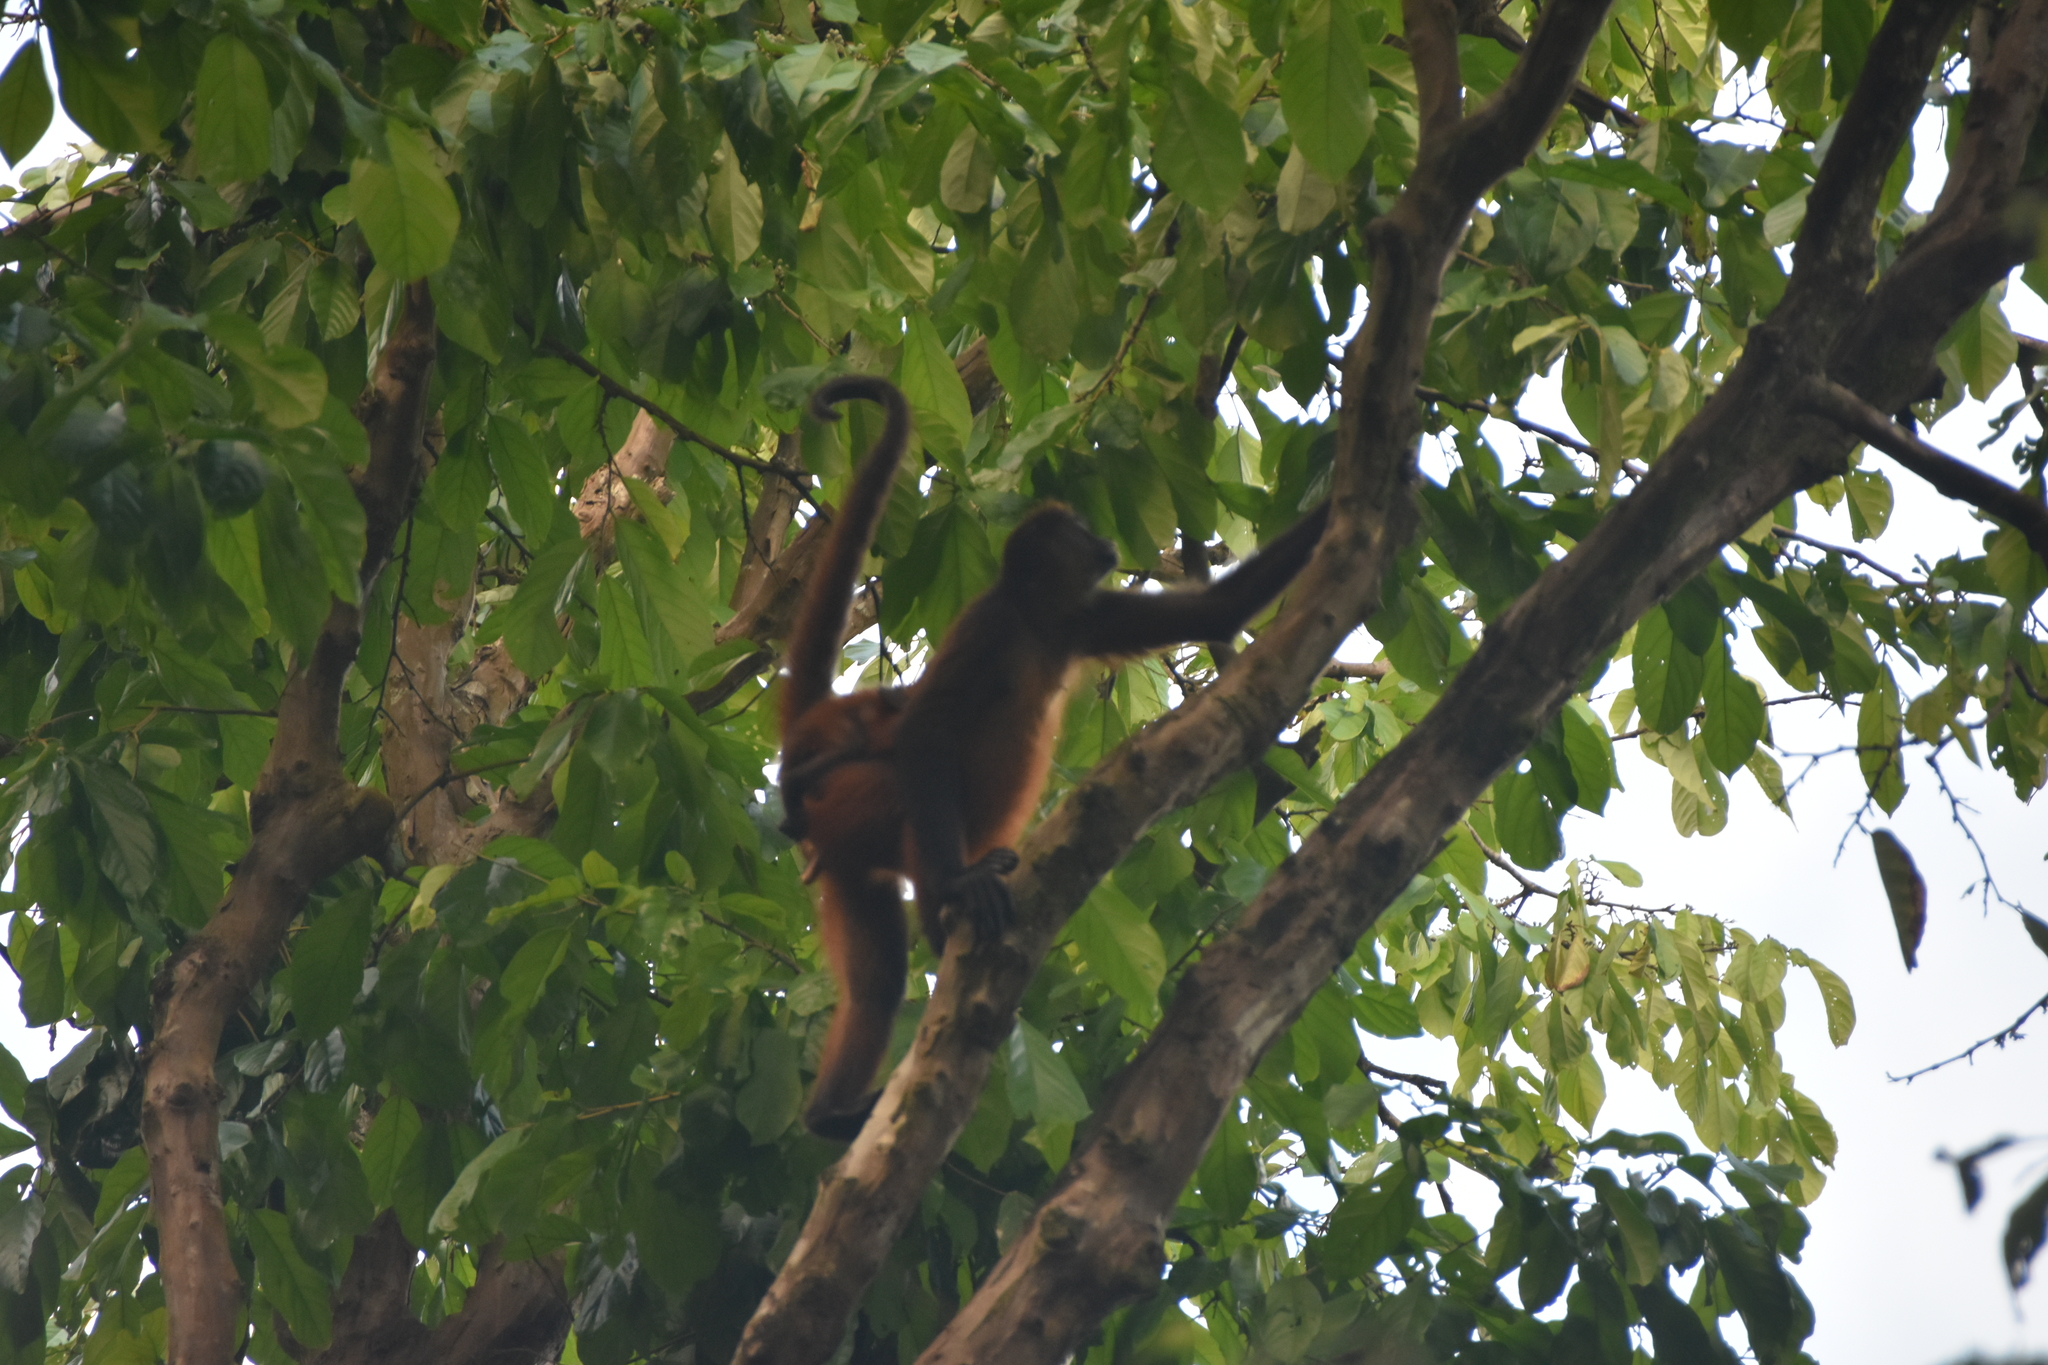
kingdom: Animalia
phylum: Chordata
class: Mammalia
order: Primates
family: Atelidae
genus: Ateles
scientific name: Ateles geoffroyi
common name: Black-handed spider monkey
